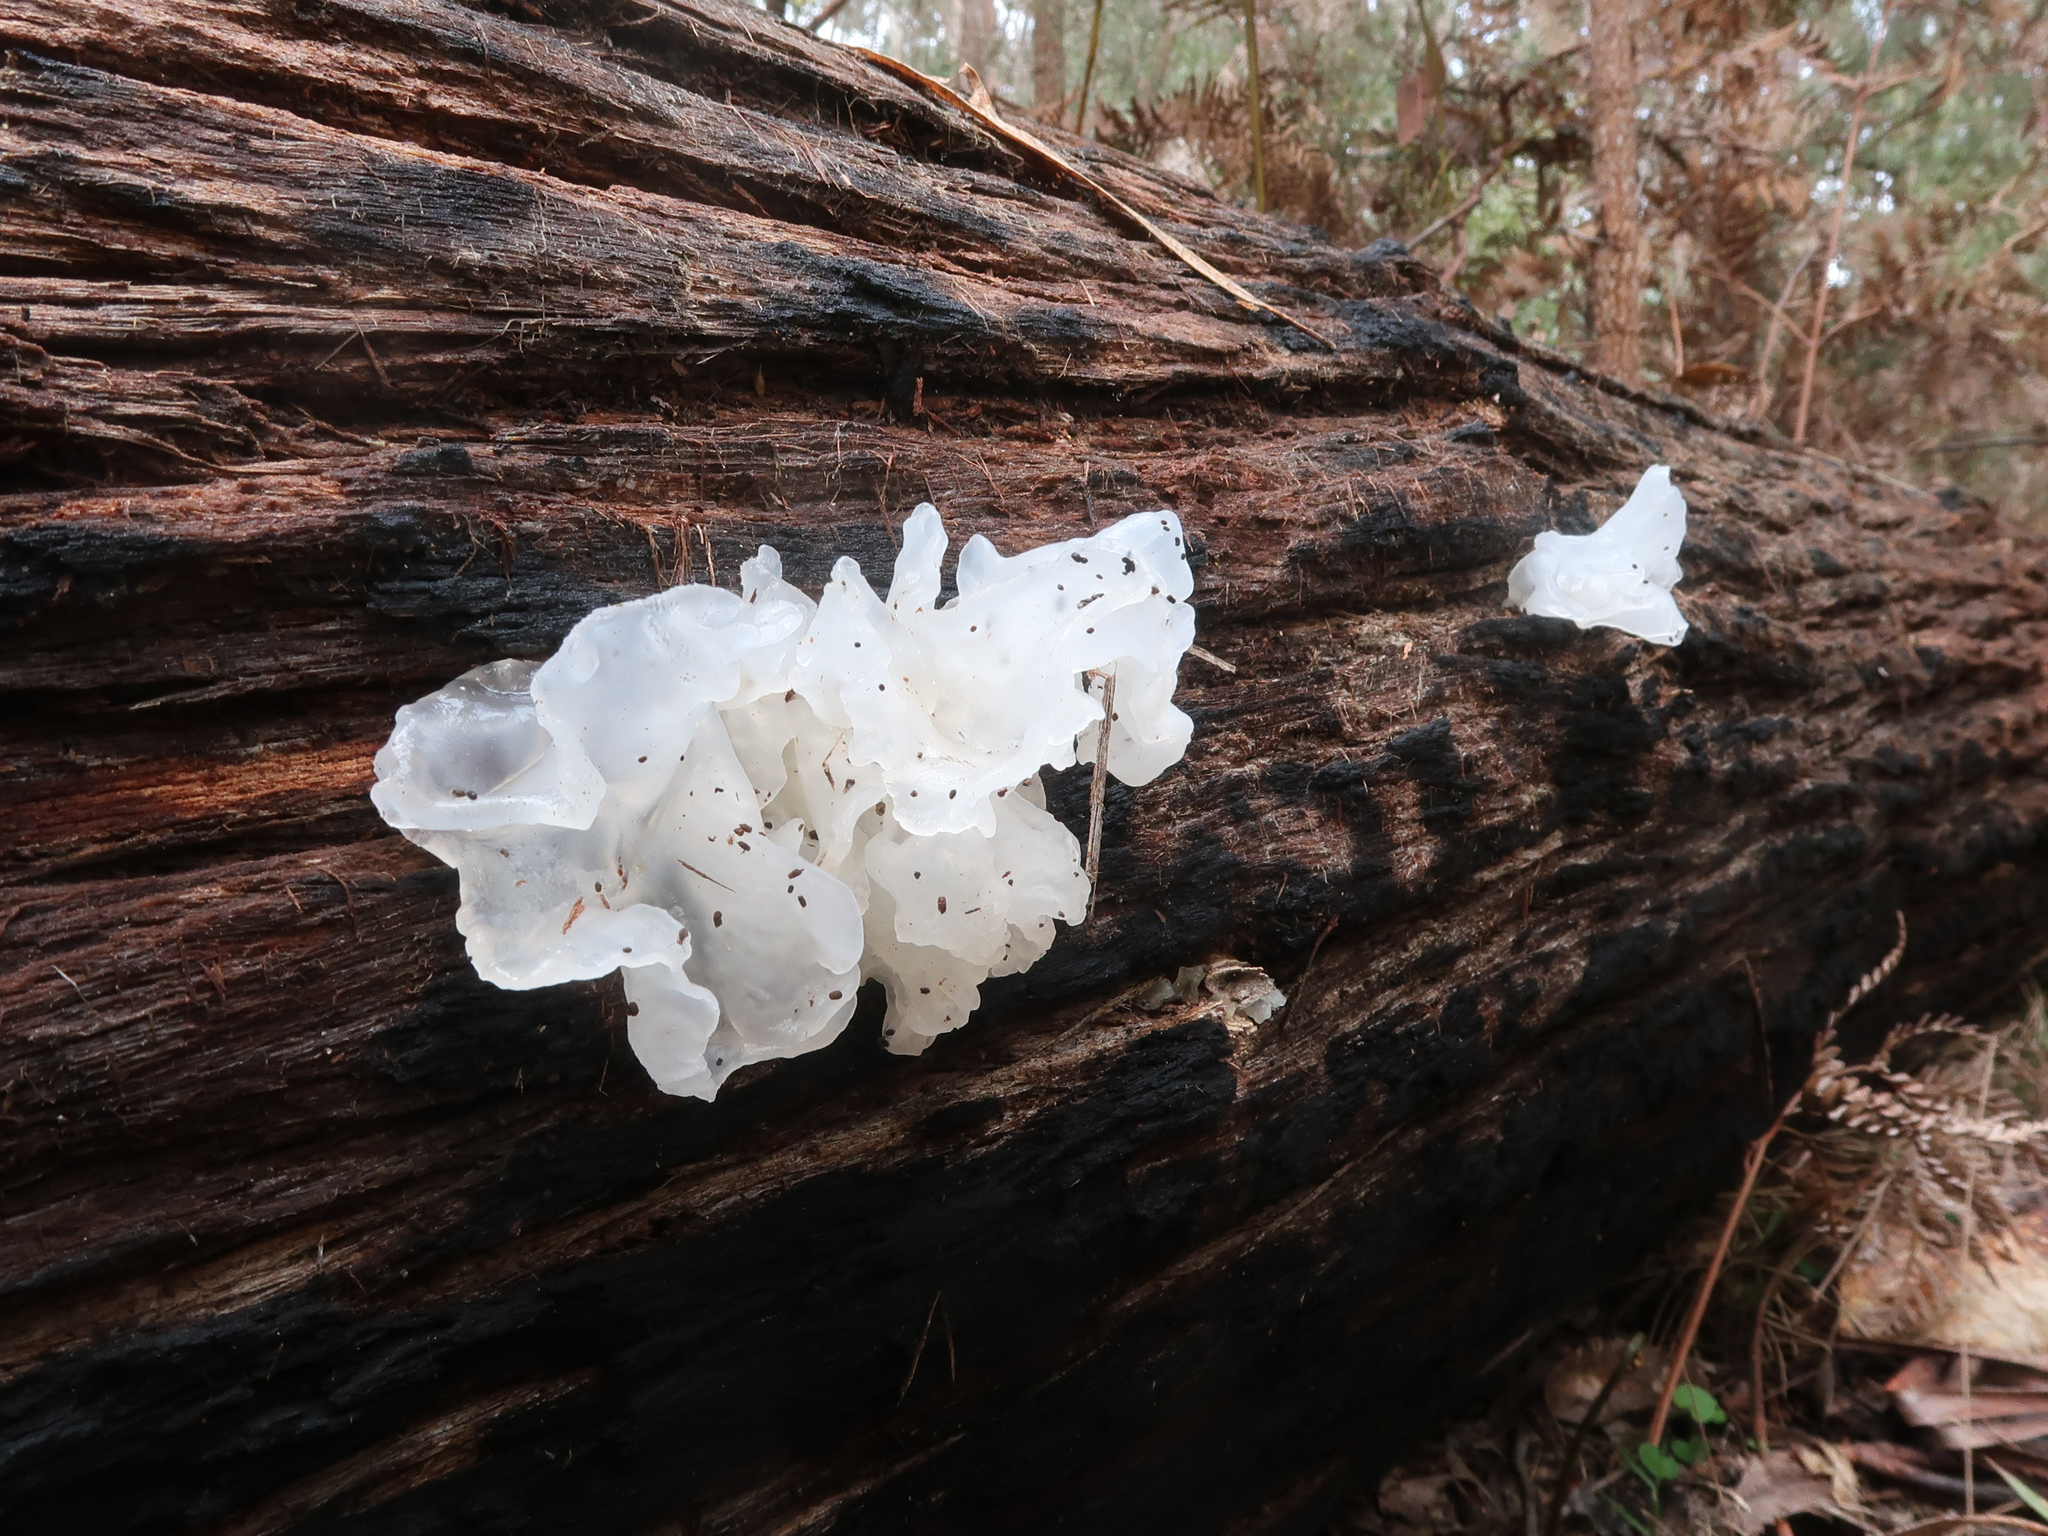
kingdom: Fungi
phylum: Basidiomycota
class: Tremellomycetes
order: Tremellales
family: Tremellaceae
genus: Tremella
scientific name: Tremella fuciformis
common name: Snow fungus
